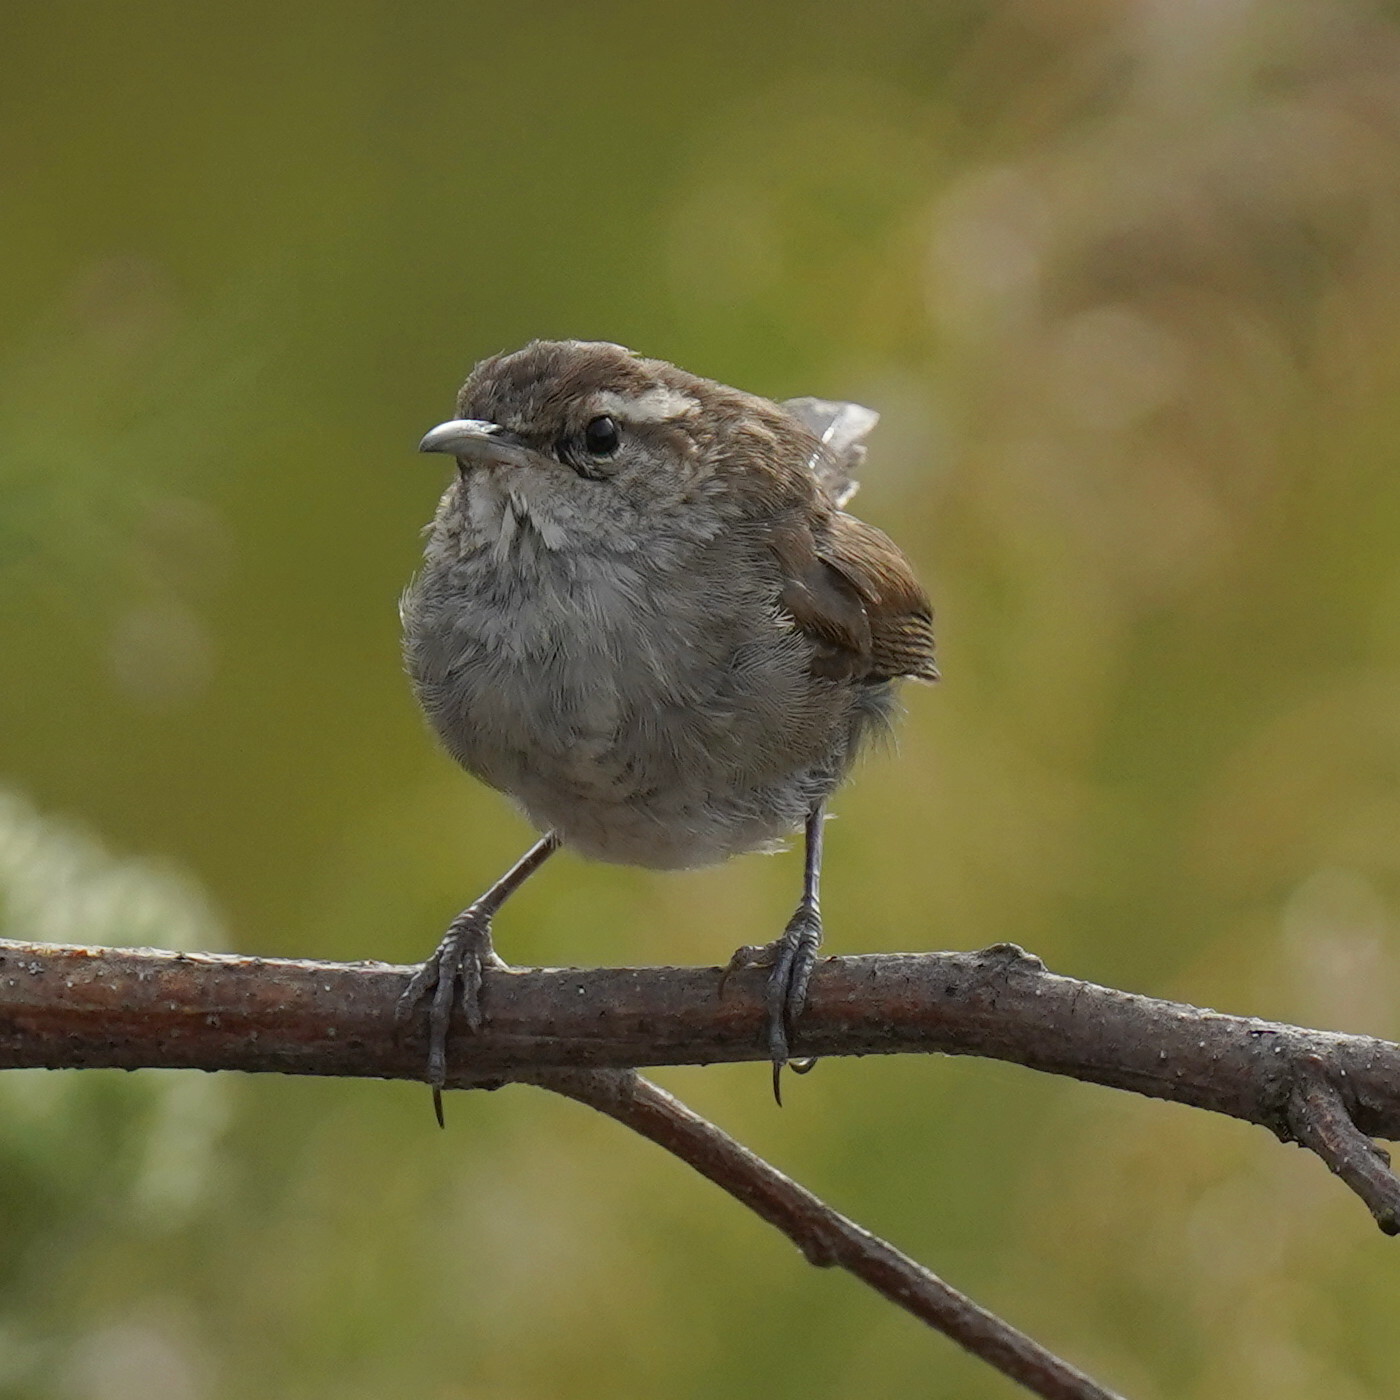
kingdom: Animalia
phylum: Chordata
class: Aves
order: Passeriformes
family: Troglodytidae
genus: Thryomanes
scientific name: Thryomanes bewickii
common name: Bewick's wren
